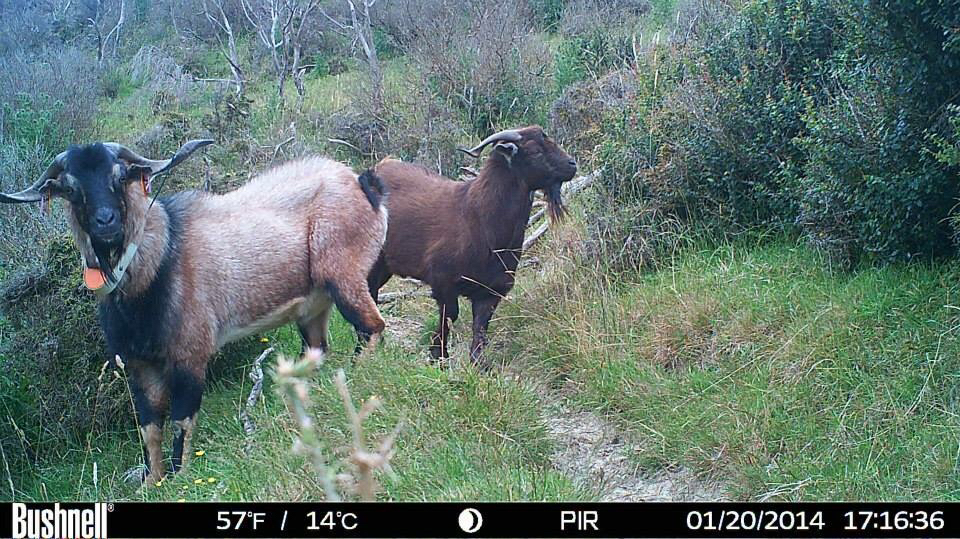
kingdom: Animalia
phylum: Chordata
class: Mammalia
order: Artiodactyla
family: Bovidae
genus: Capra
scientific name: Capra hircus
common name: Domestic goat
